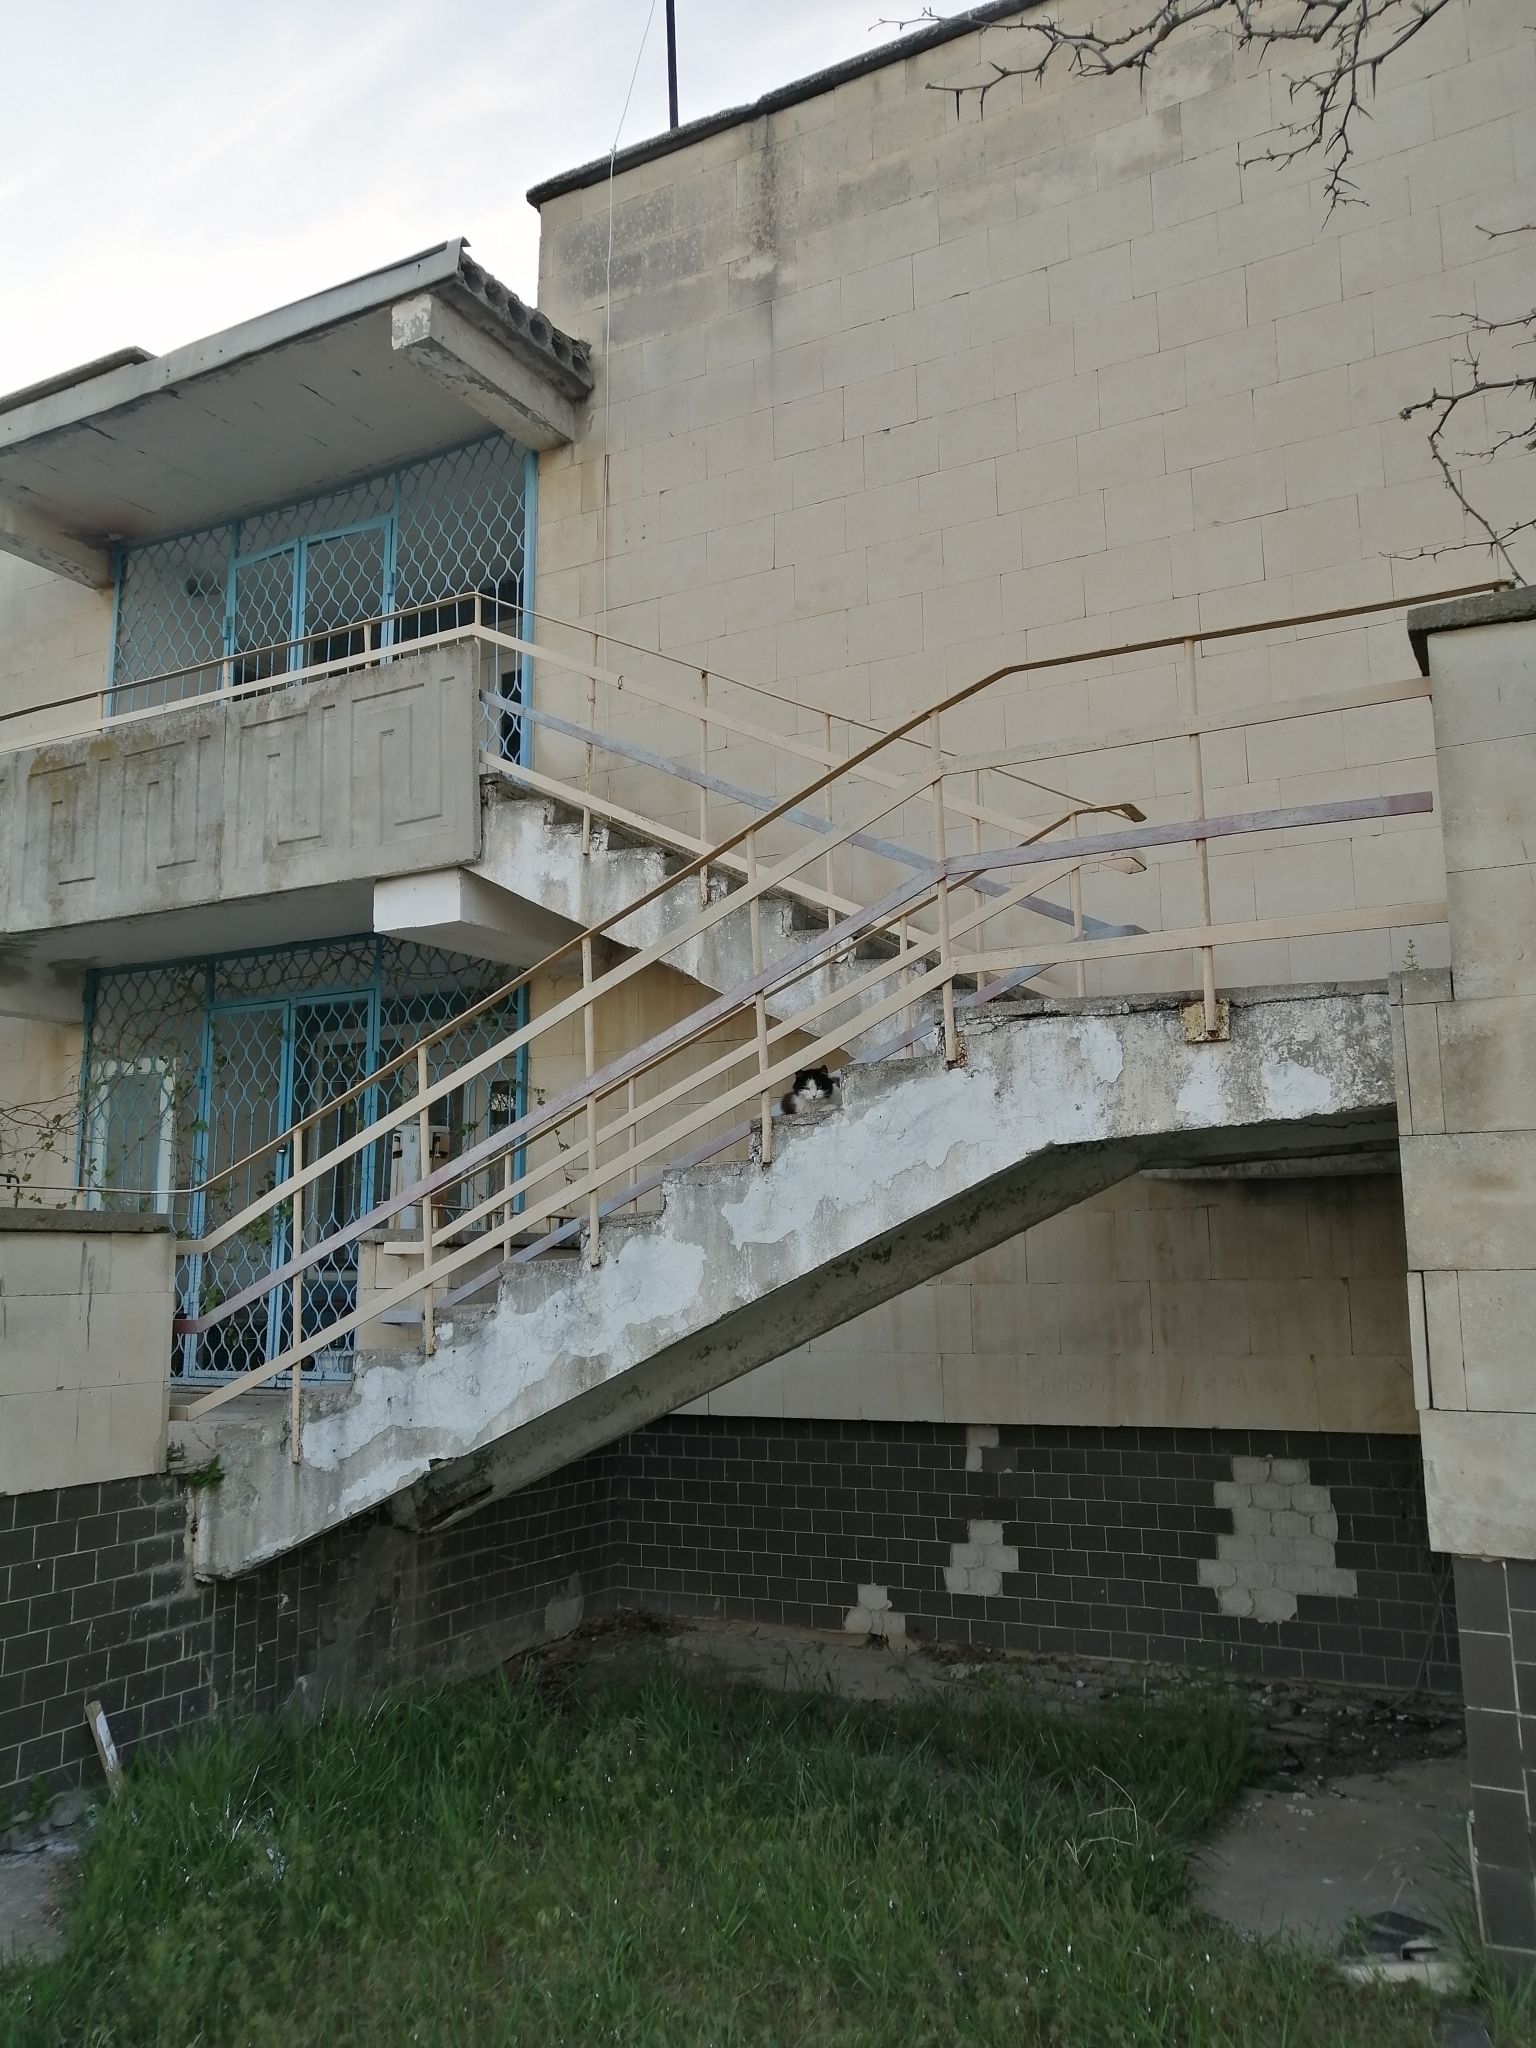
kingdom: Animalia
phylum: Chordata
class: Mammalia
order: Carnivora
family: Felidae
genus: Felis
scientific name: Felis catus
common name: Domestic cat
